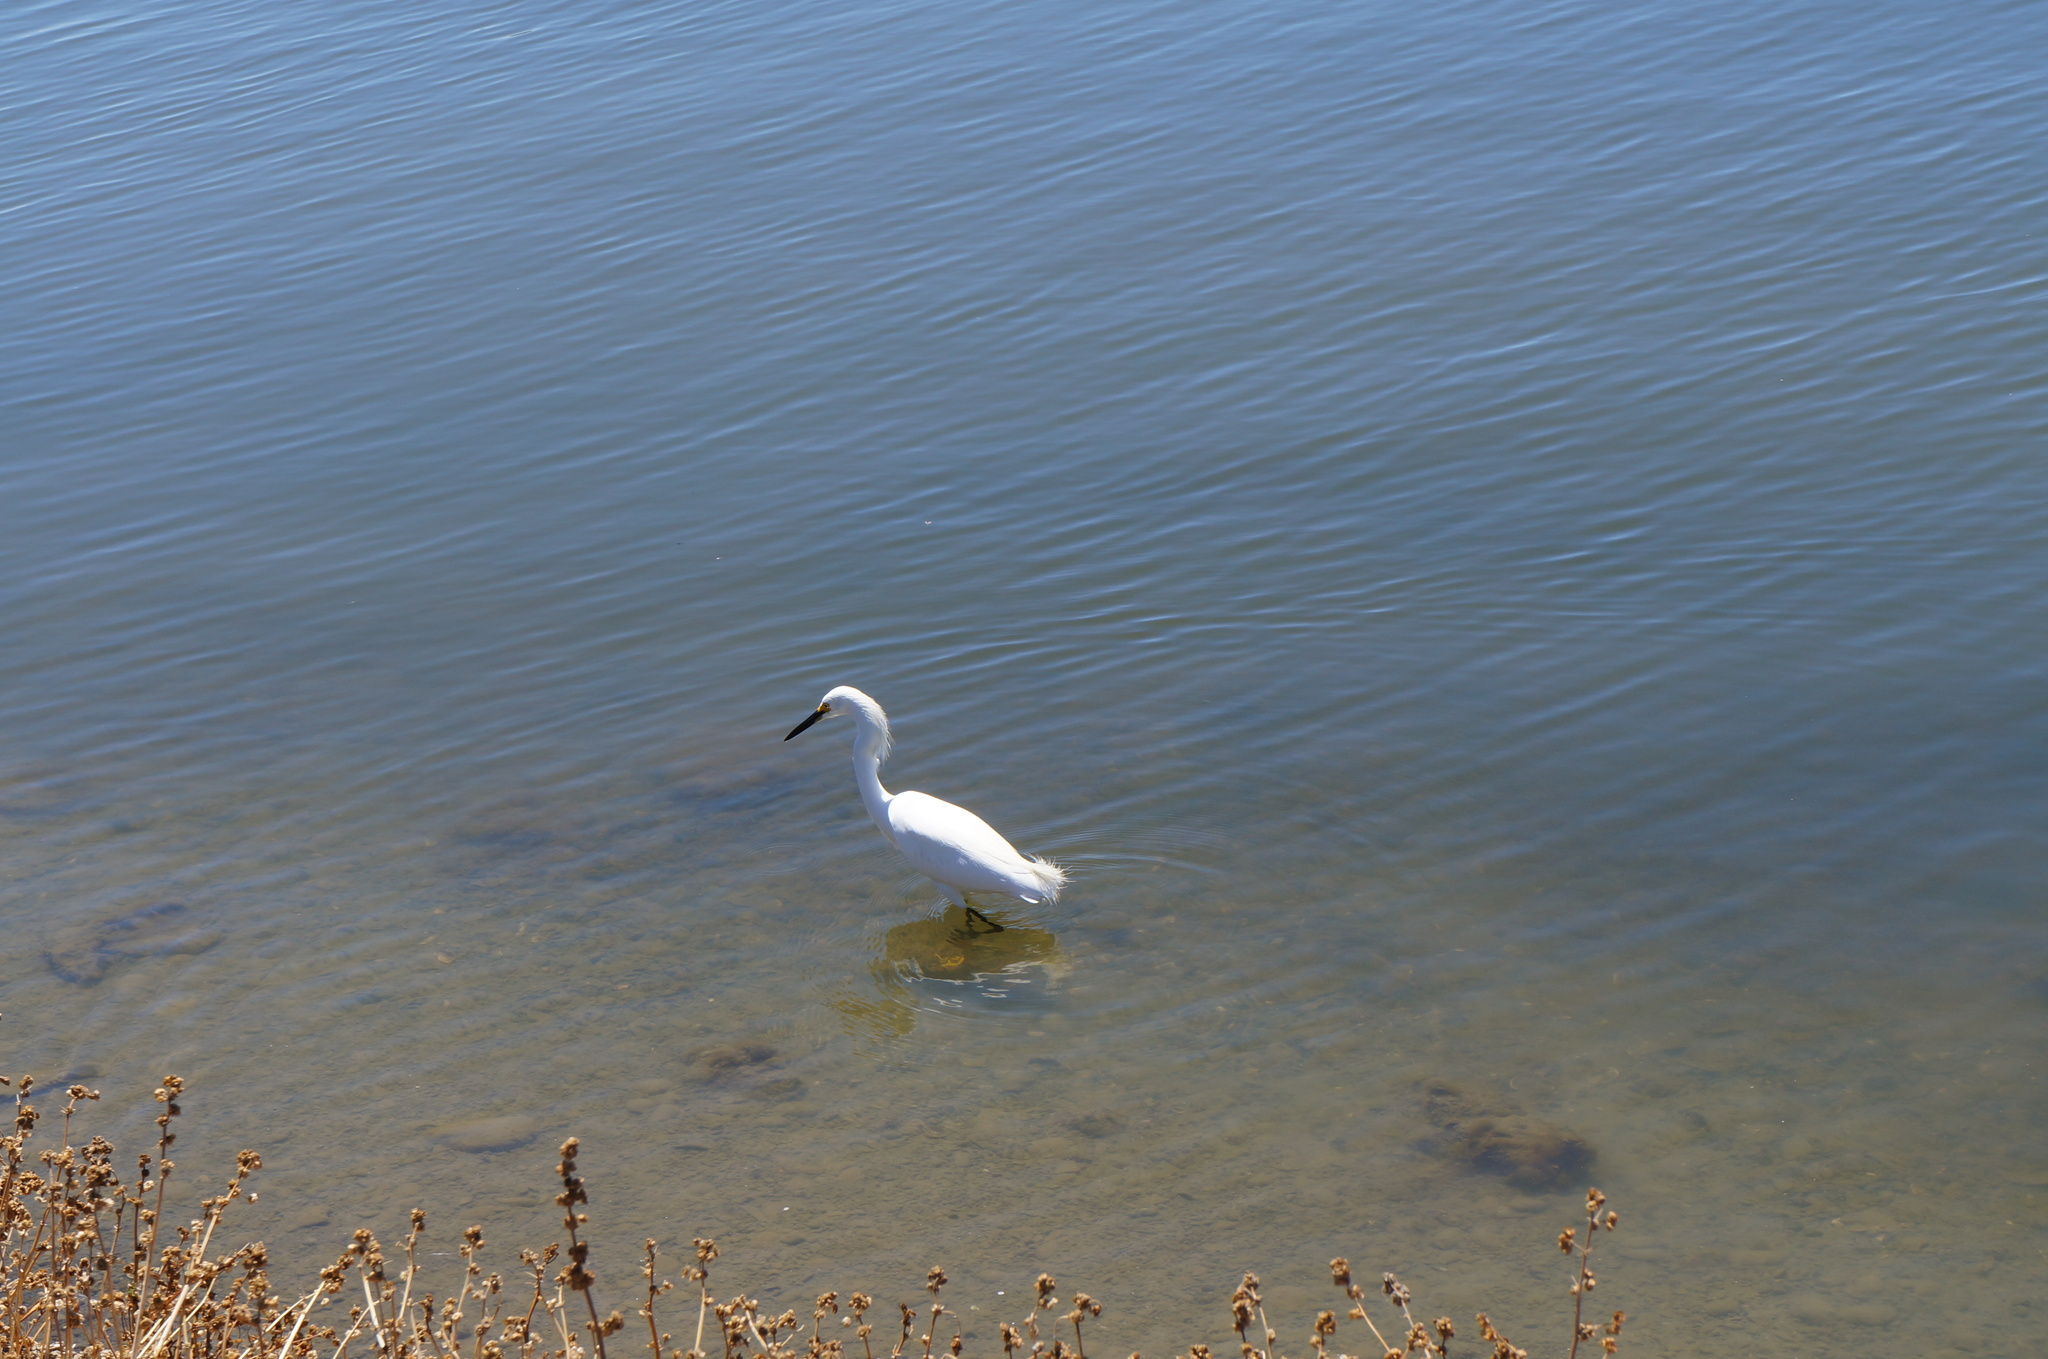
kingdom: Animalia
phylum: Chordata
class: Aves
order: Pelecaniformes
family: Ardeidae
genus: Egretta
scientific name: Egretta thula
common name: Snowy egret
